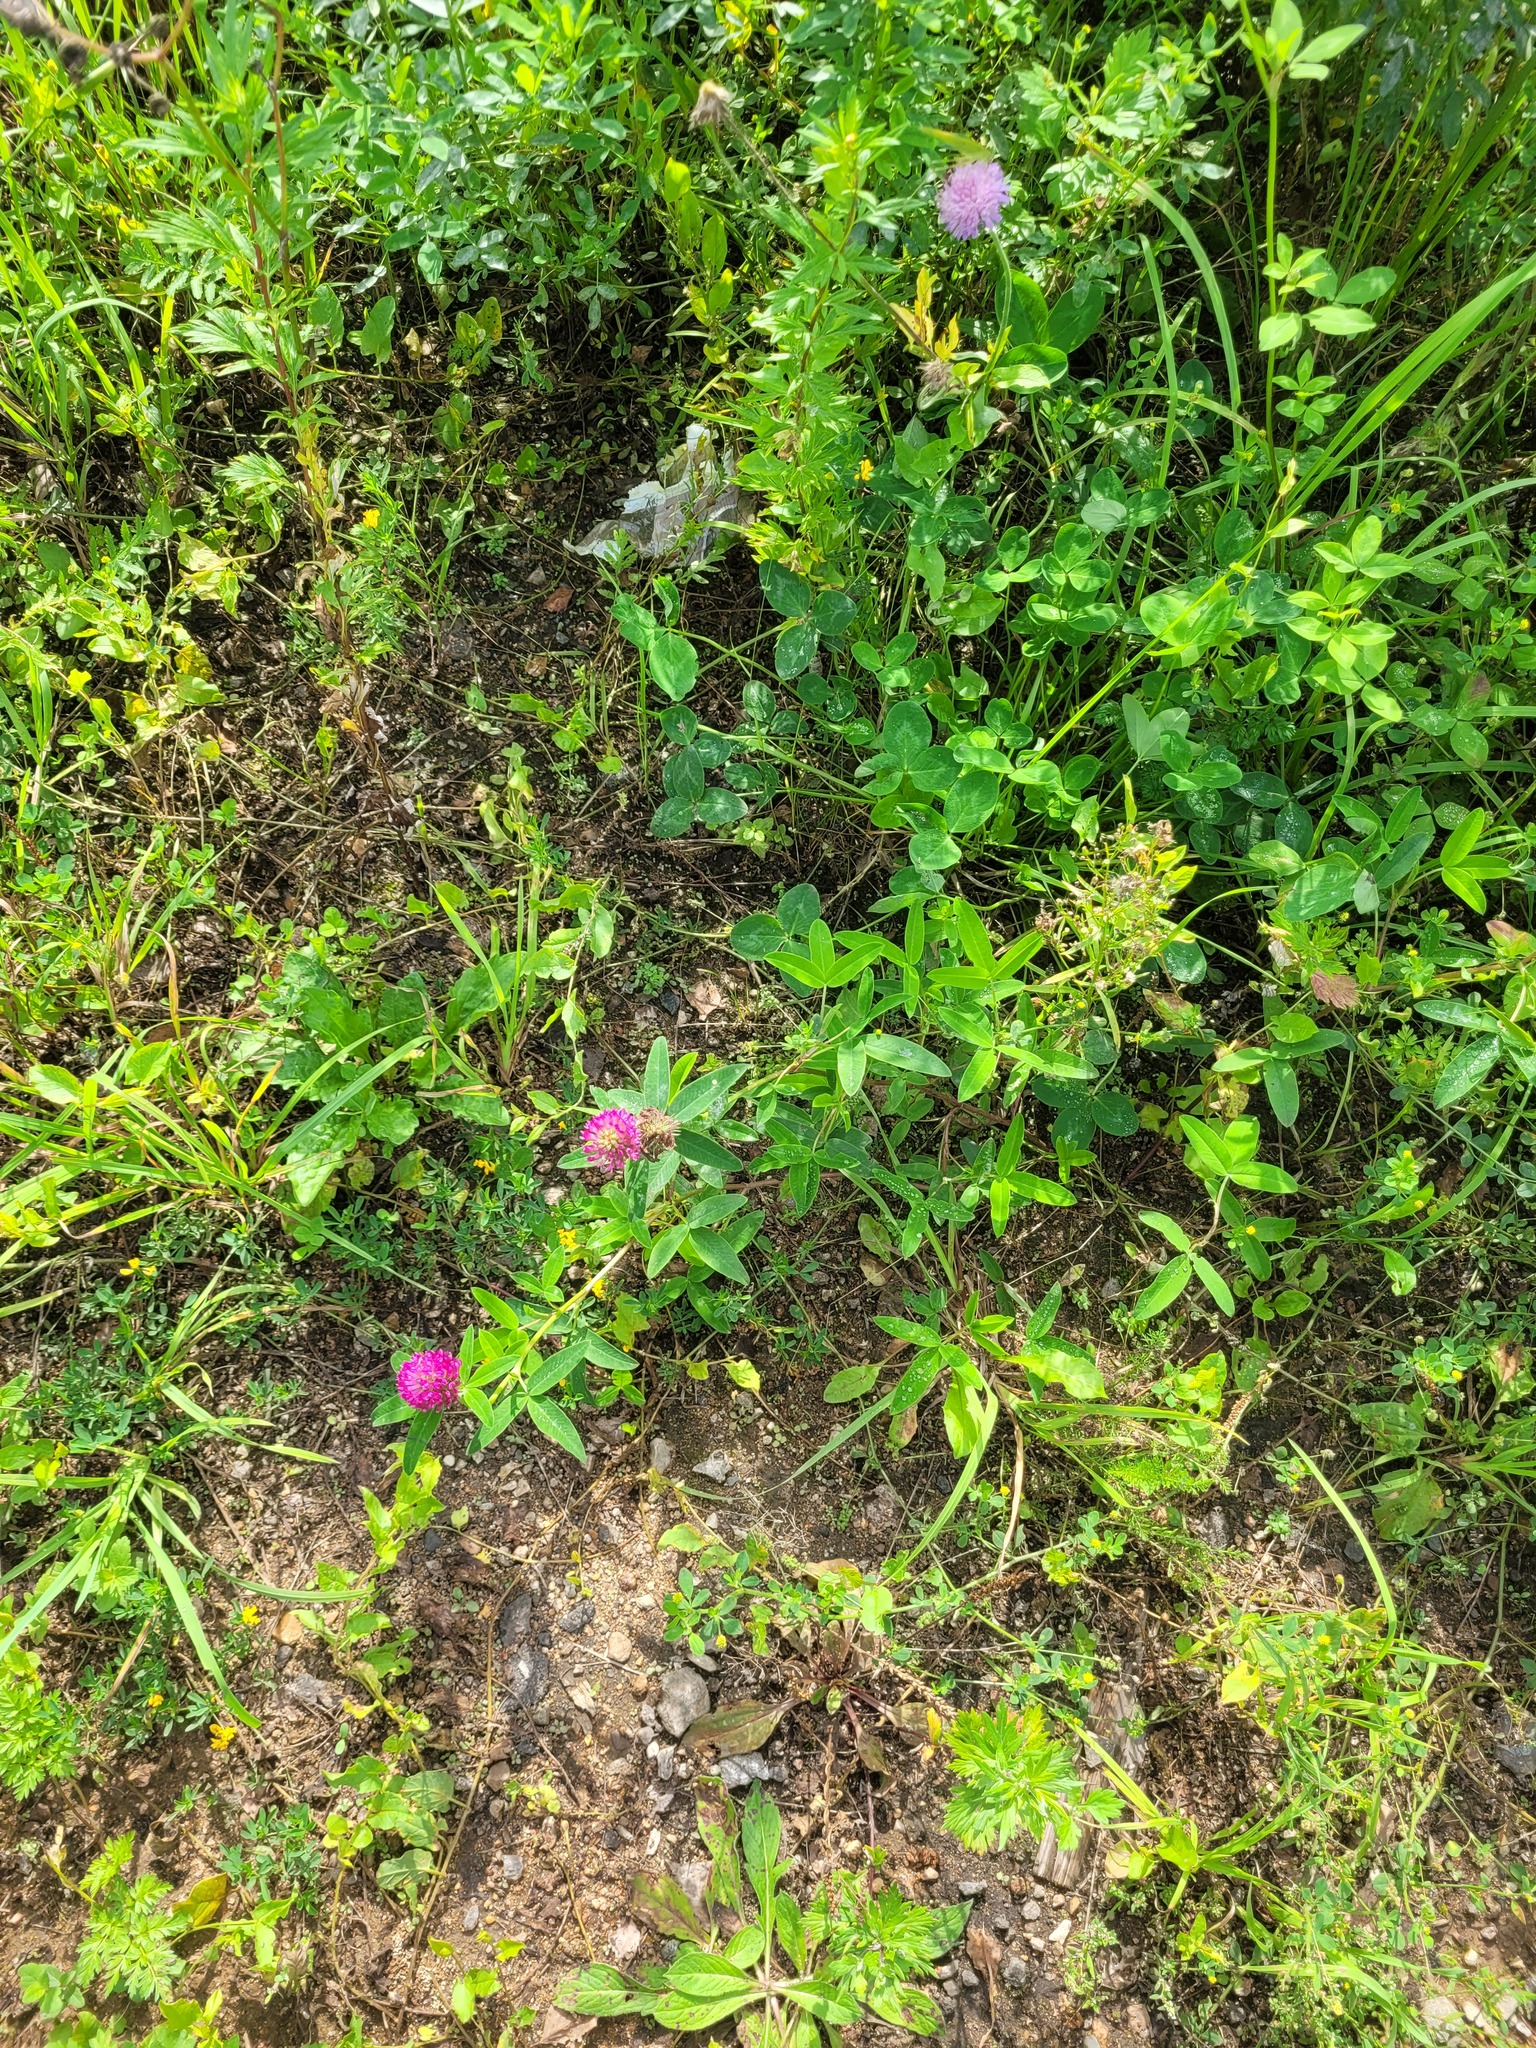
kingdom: Plantae
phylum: Tracheophyta
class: Magnoliopsida
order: Fabales
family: Fabaceae
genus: Trifolium
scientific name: Trifolium medium
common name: Zigzag clover
